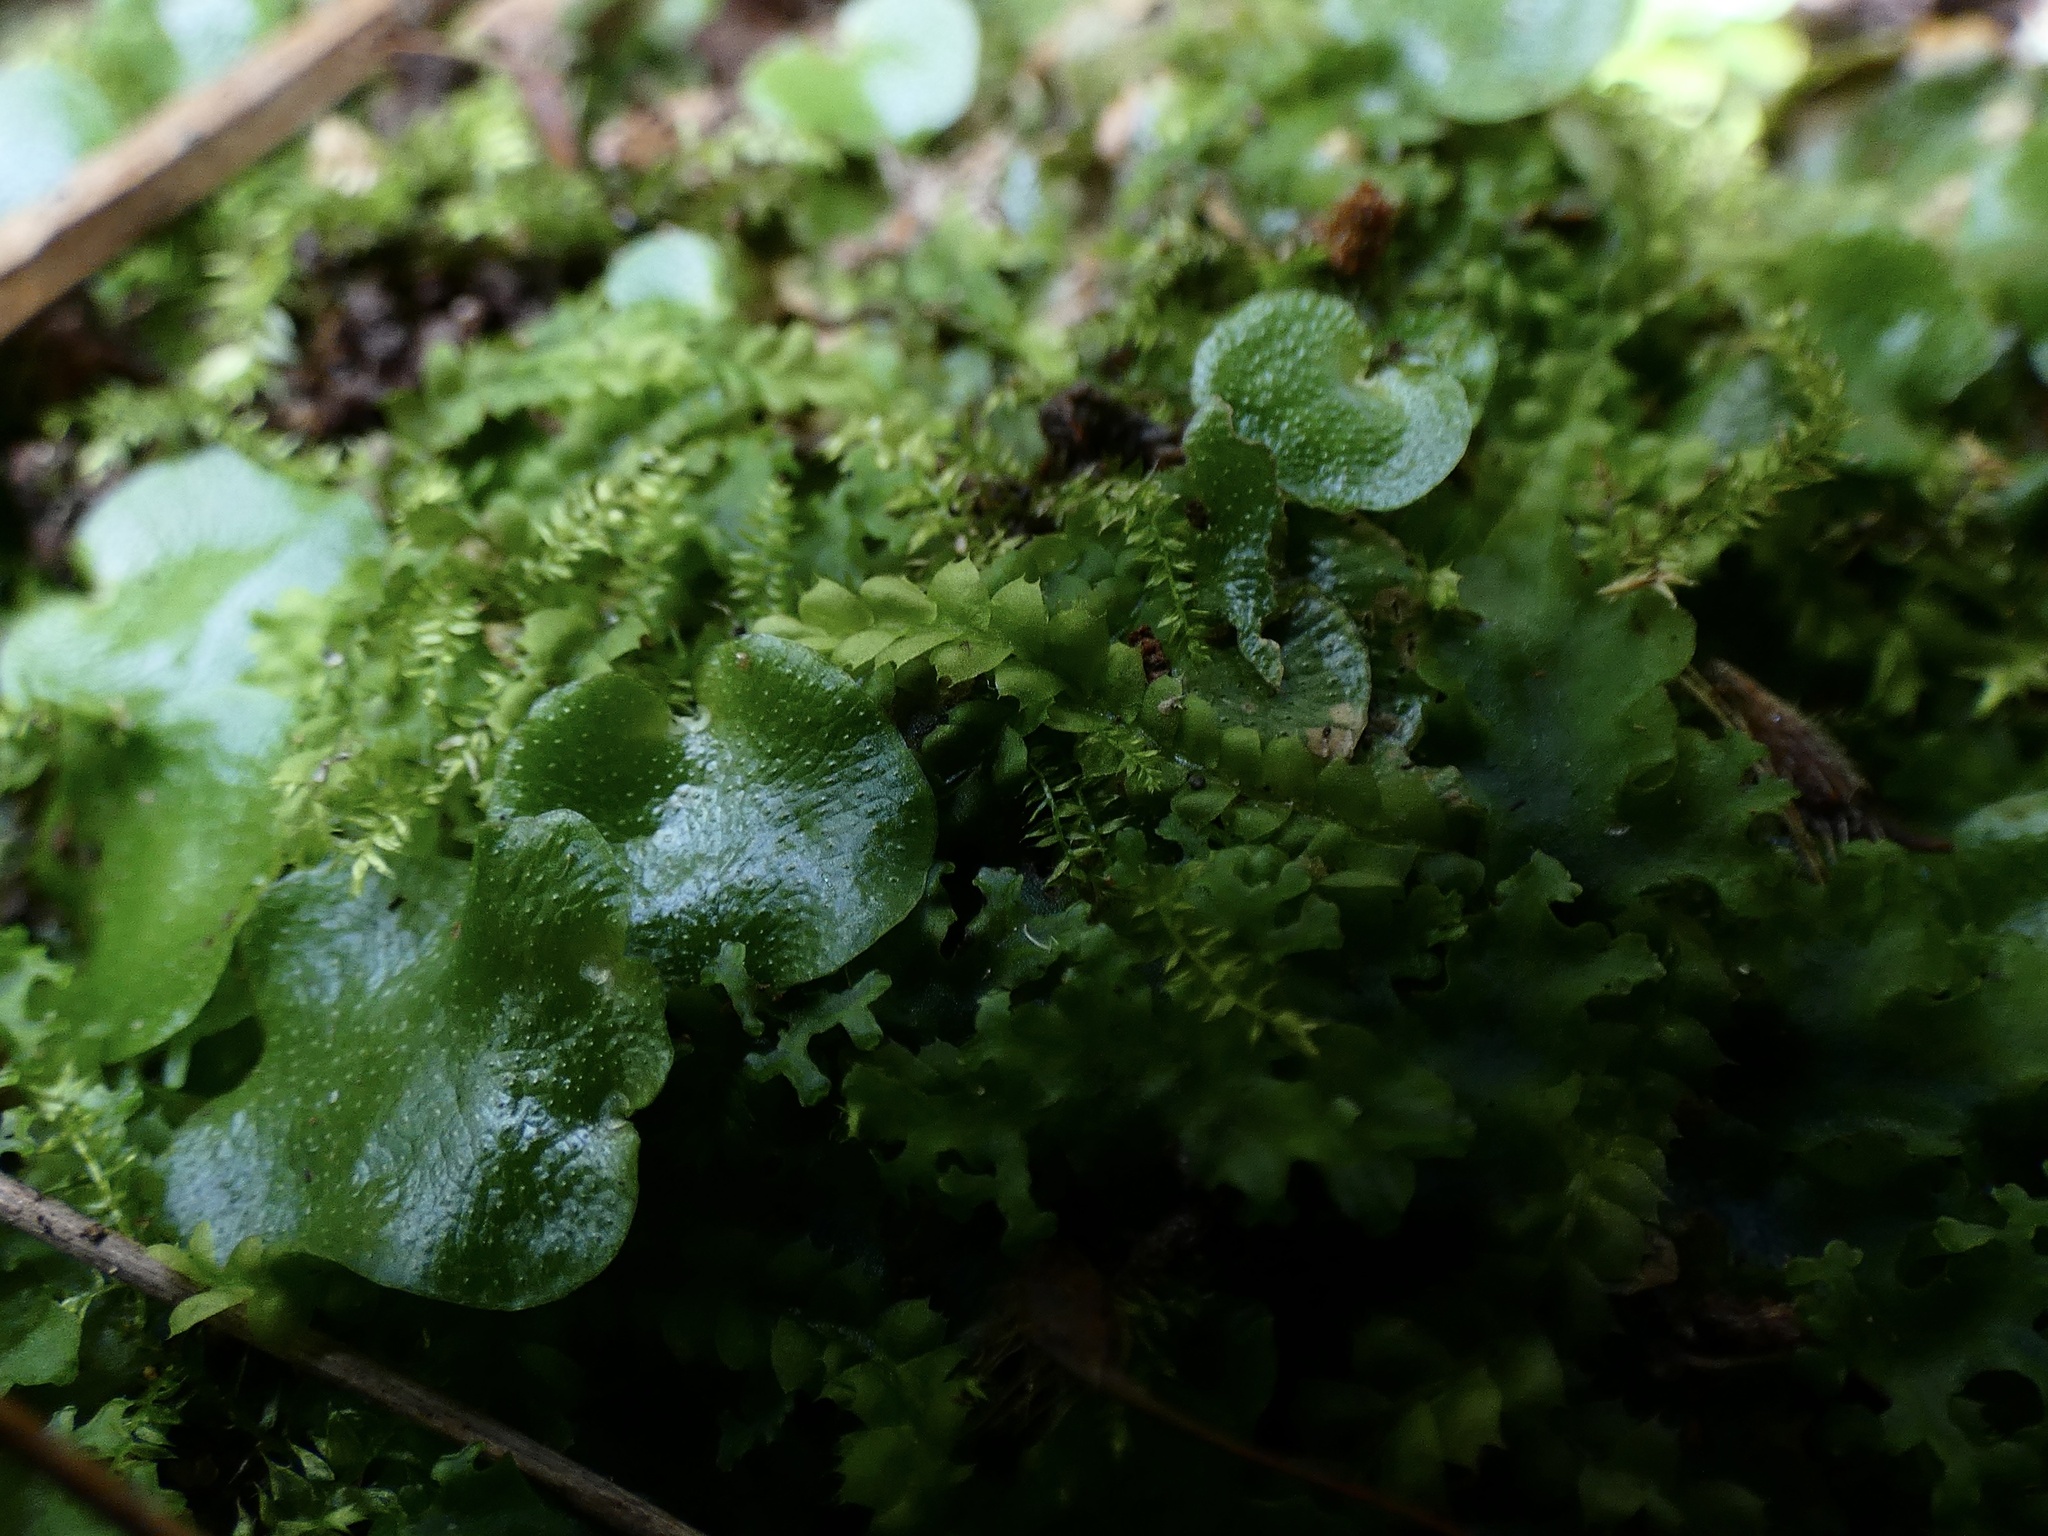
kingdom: Plantae
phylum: Marchantiophyta
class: Marchantiopsida
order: Lunulariales
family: Lunulariaceae
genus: Lunularia
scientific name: Lunularia cruciata
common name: Crescent-cup liverwort
